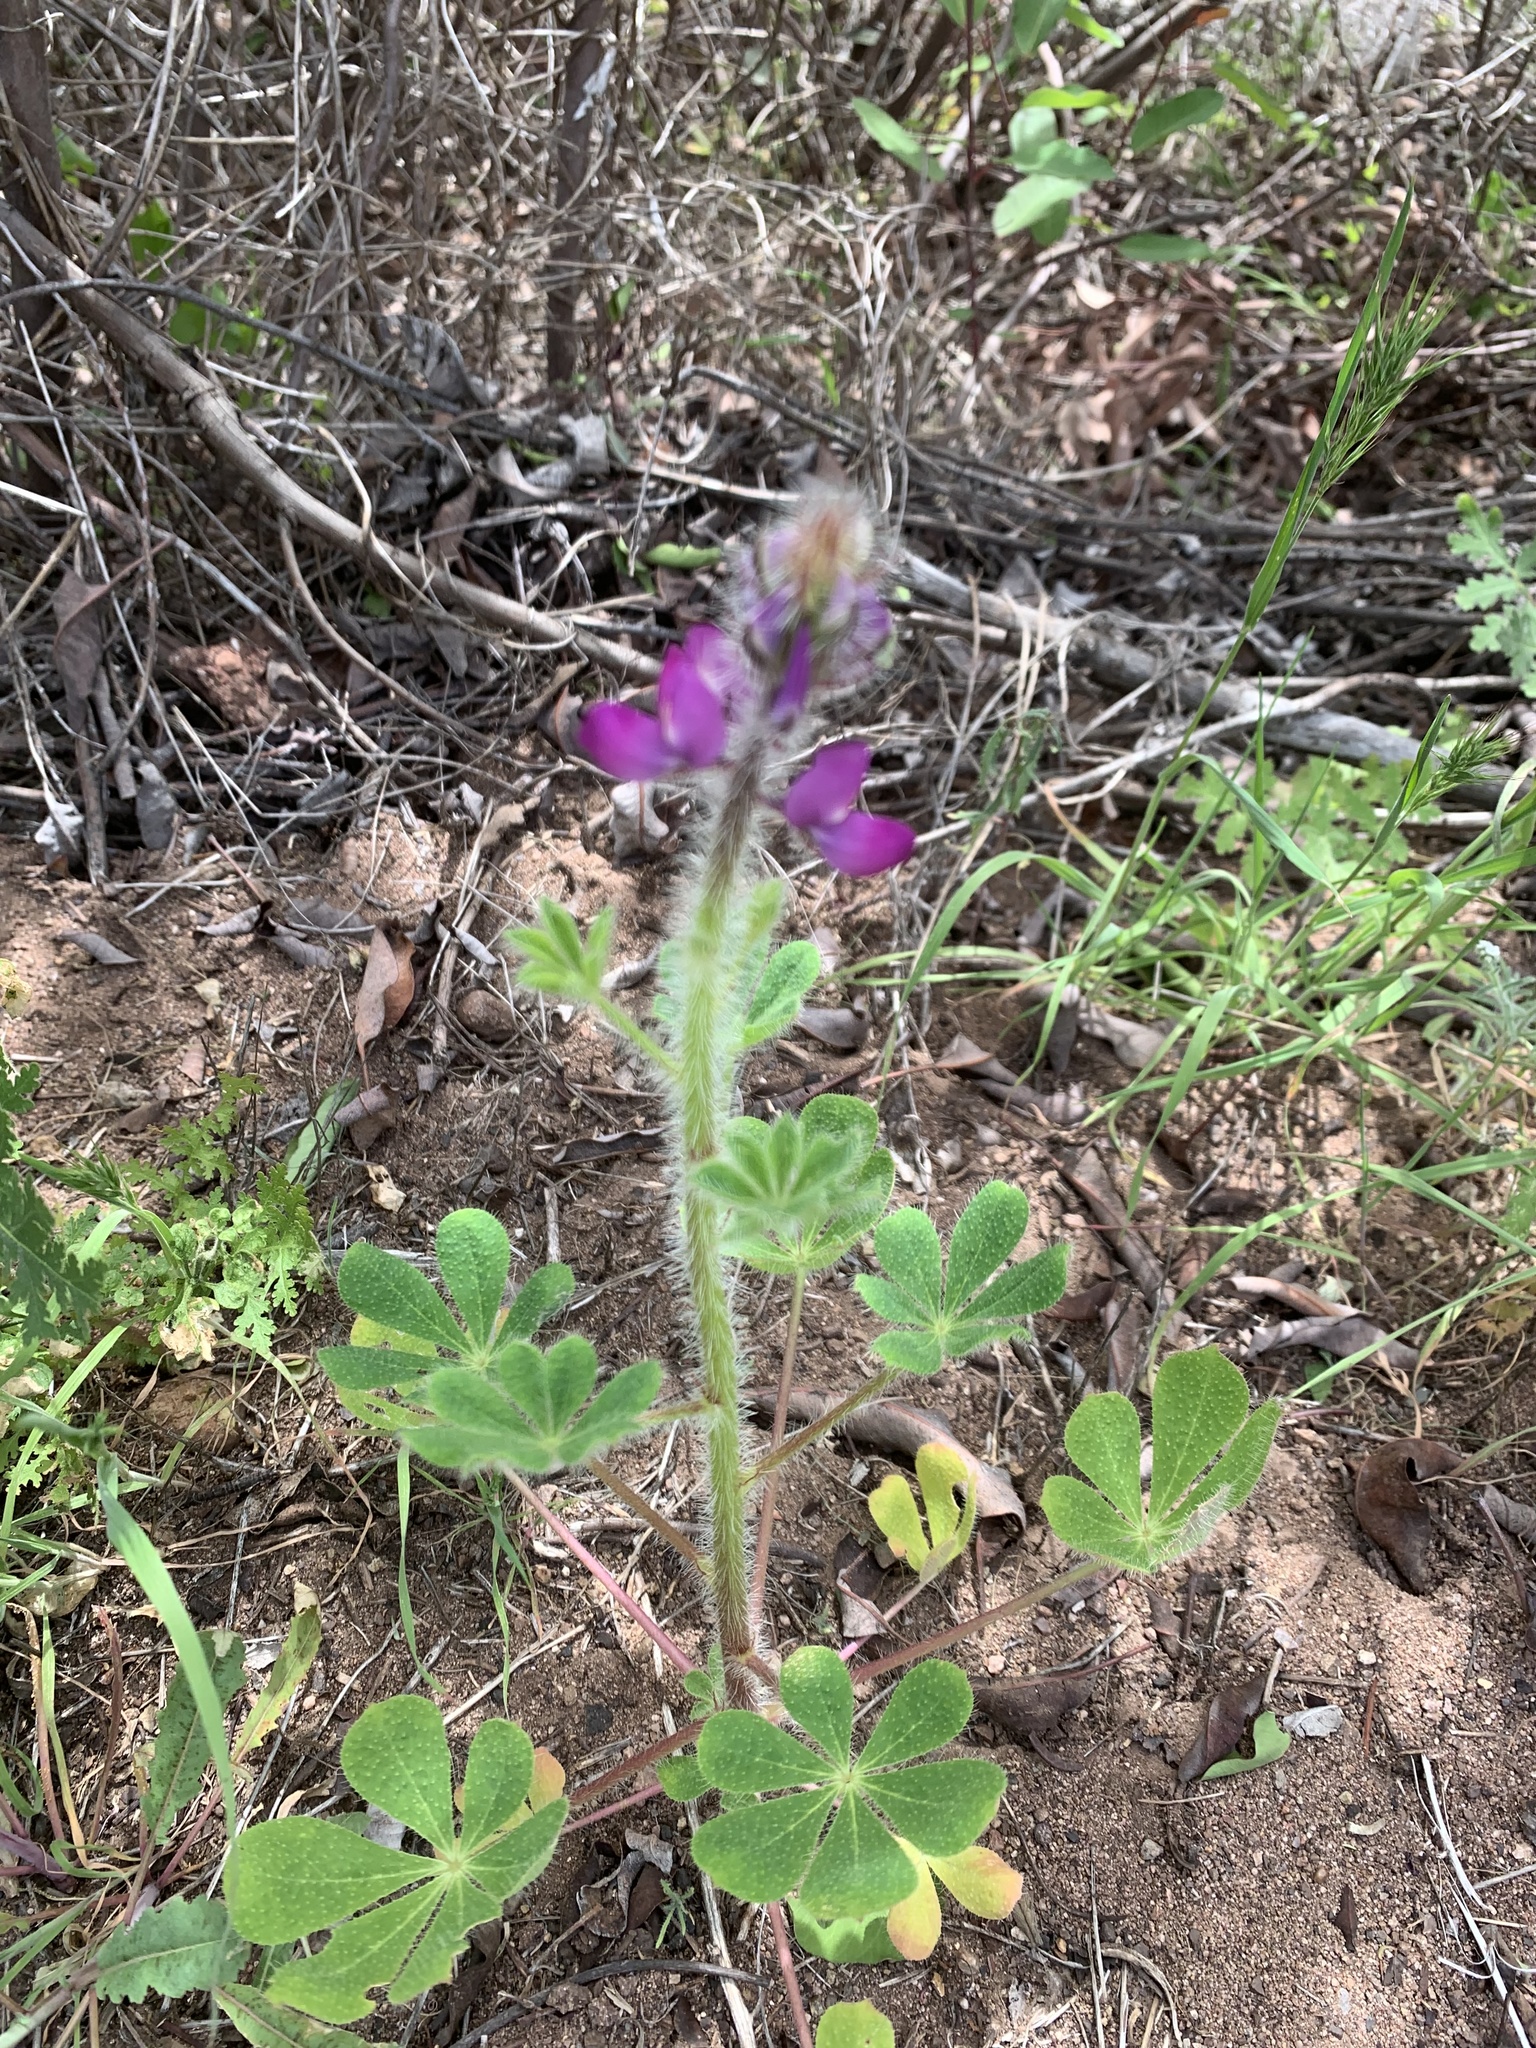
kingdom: Plantae
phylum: Tracheophyta
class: Magnoliopsida
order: Fabales
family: Fabaceae
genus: Lupinus
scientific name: Lupinus hirsutissimus
